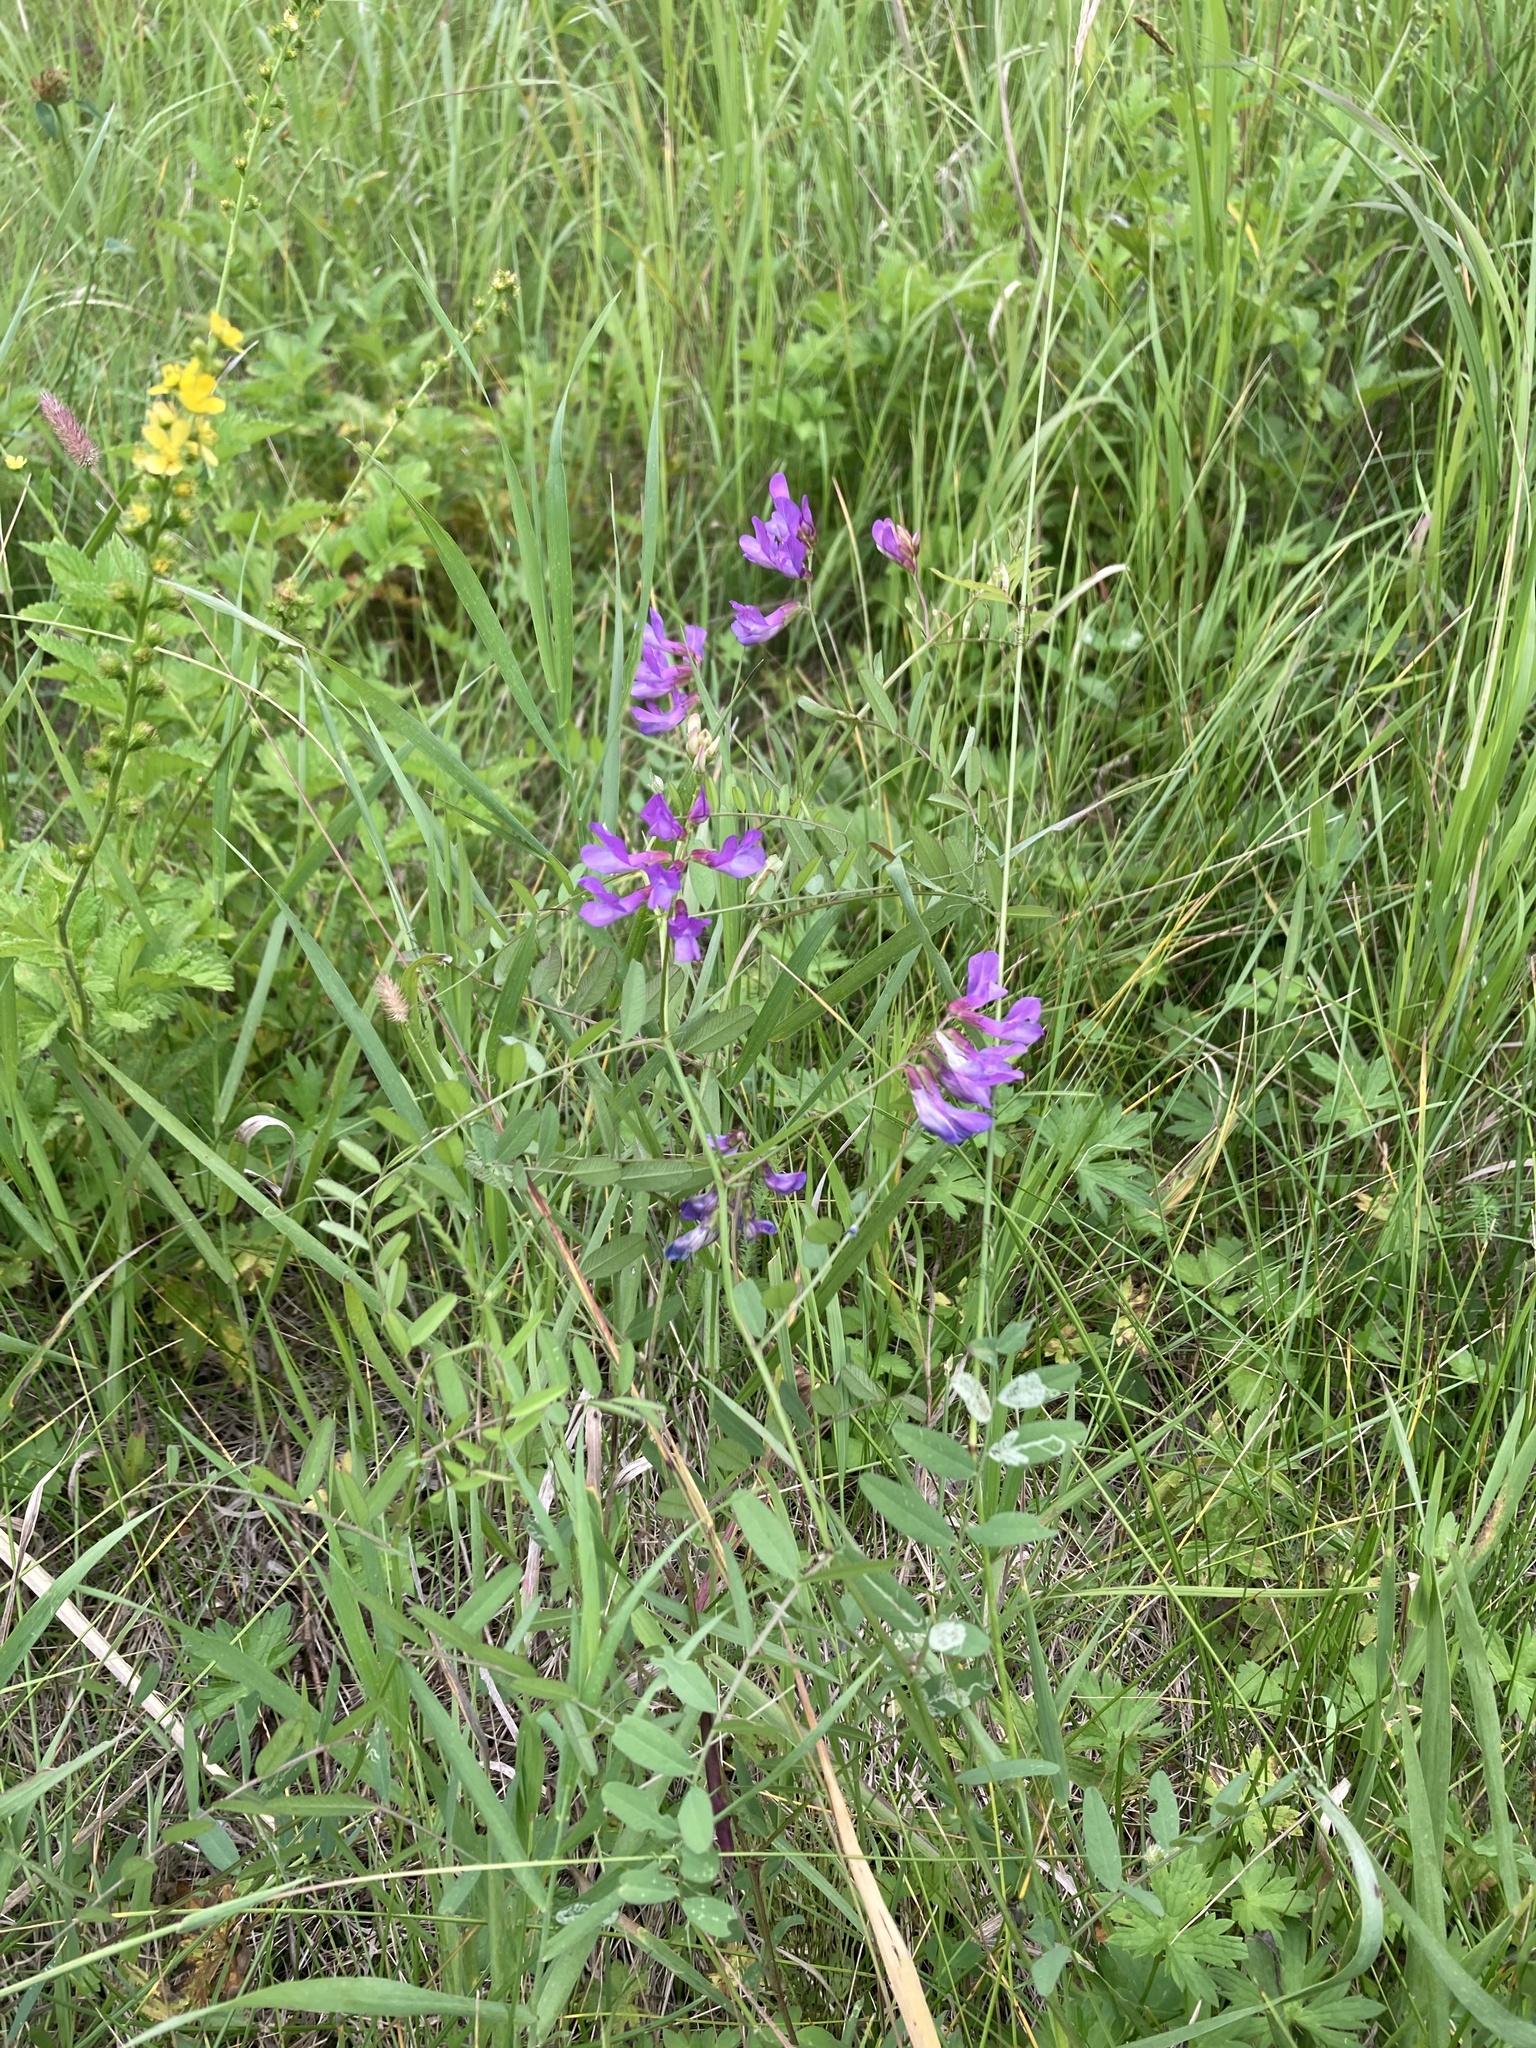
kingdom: Plantae
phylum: Tracheophyta
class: Magnoliopsida
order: Fabales
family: Fabaceae
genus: Vicia
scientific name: Vicia americana
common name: American vetch
